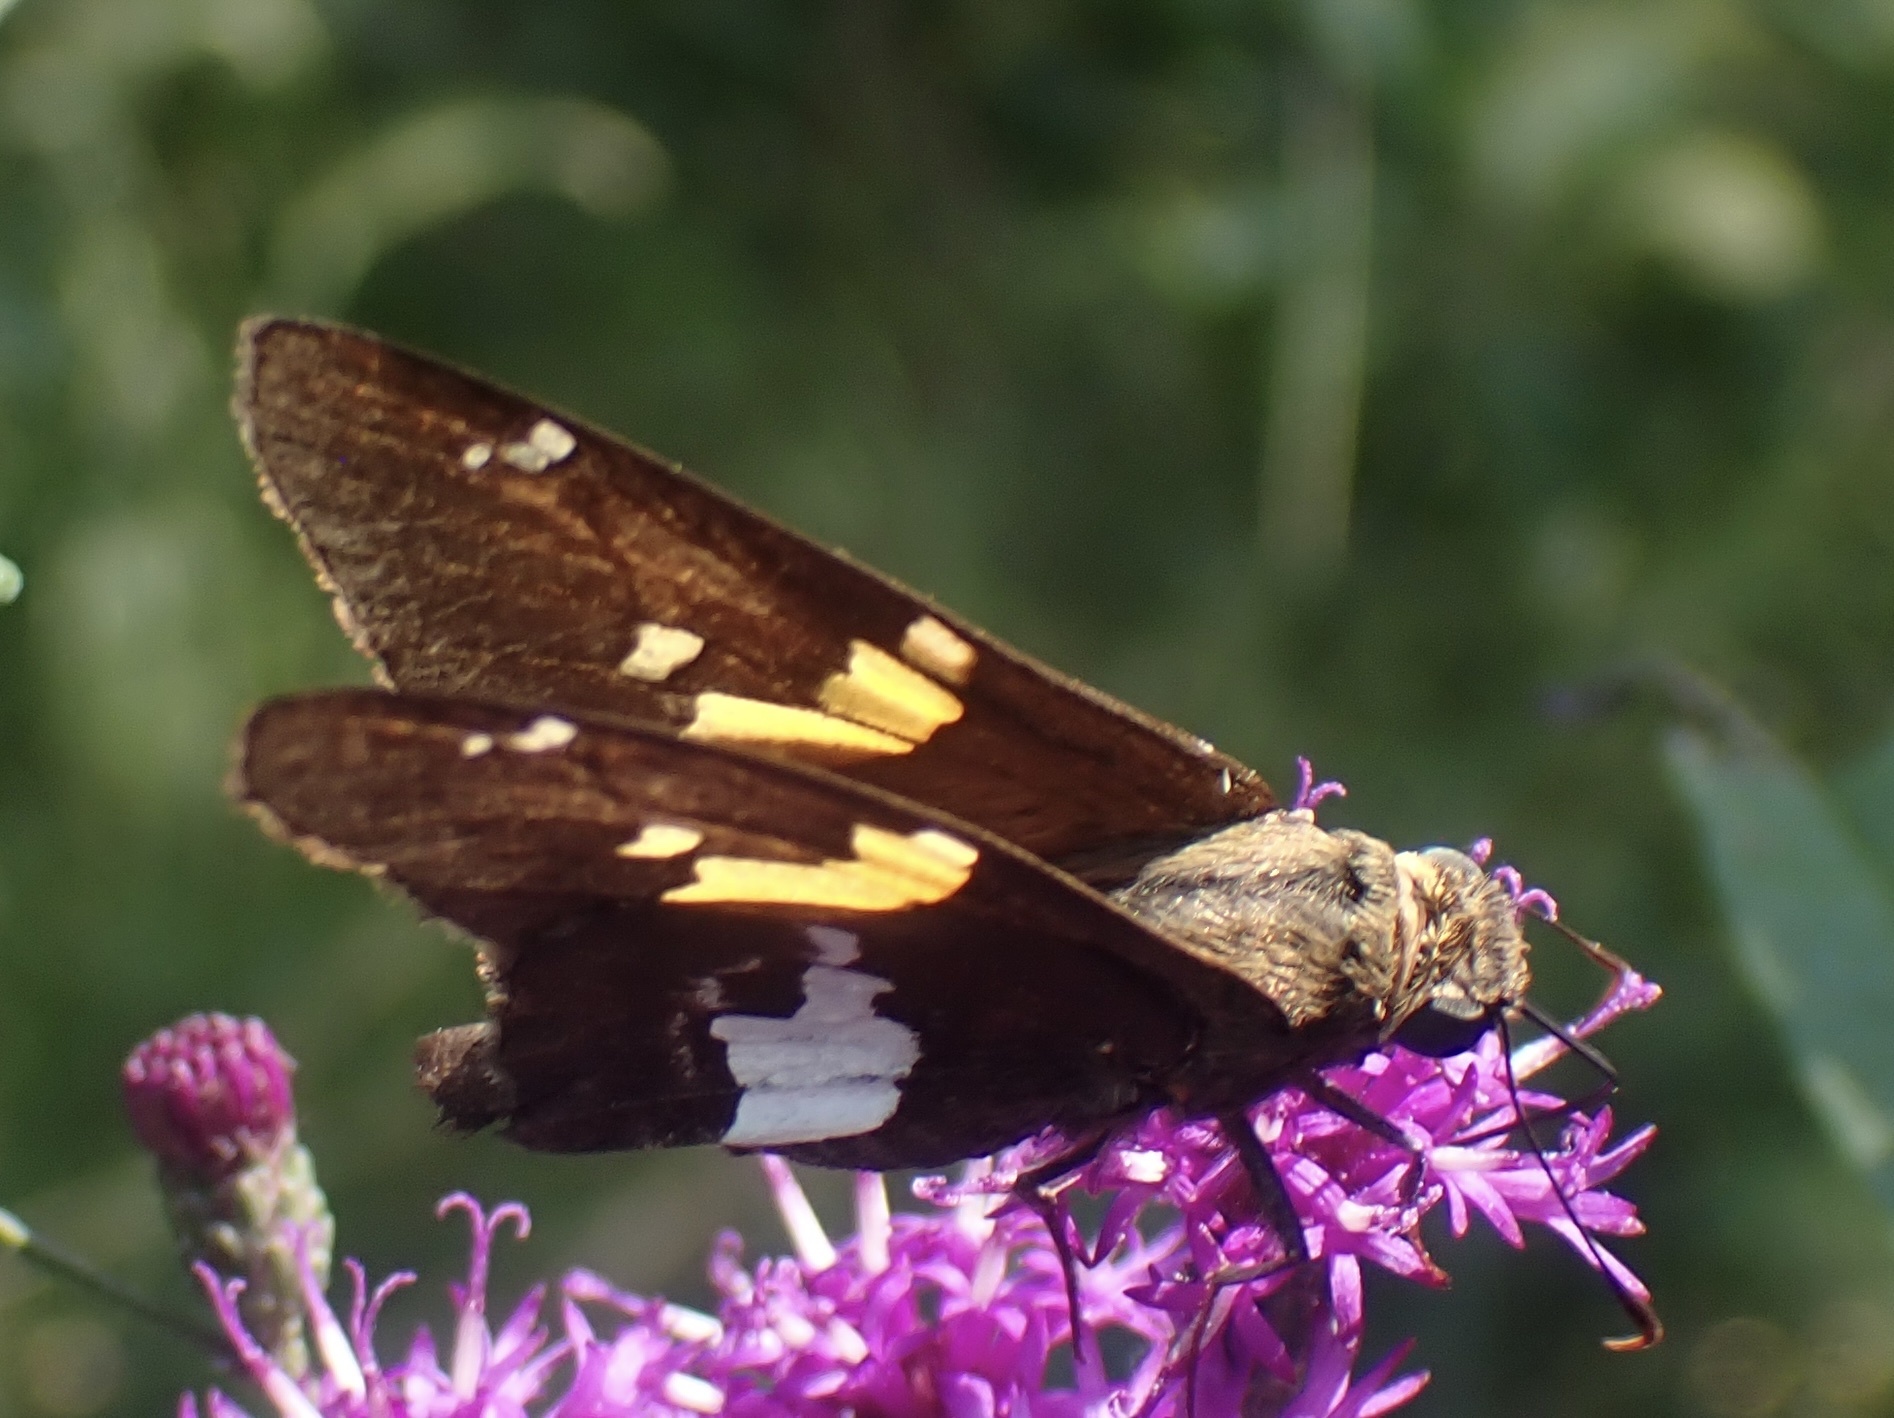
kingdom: Animalia
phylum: Arthropoda
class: Insecta
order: Lepidoptera
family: Hesperiidae
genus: Epargyreus
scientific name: Epargyreus clarus
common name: Silver-spotted skipper
